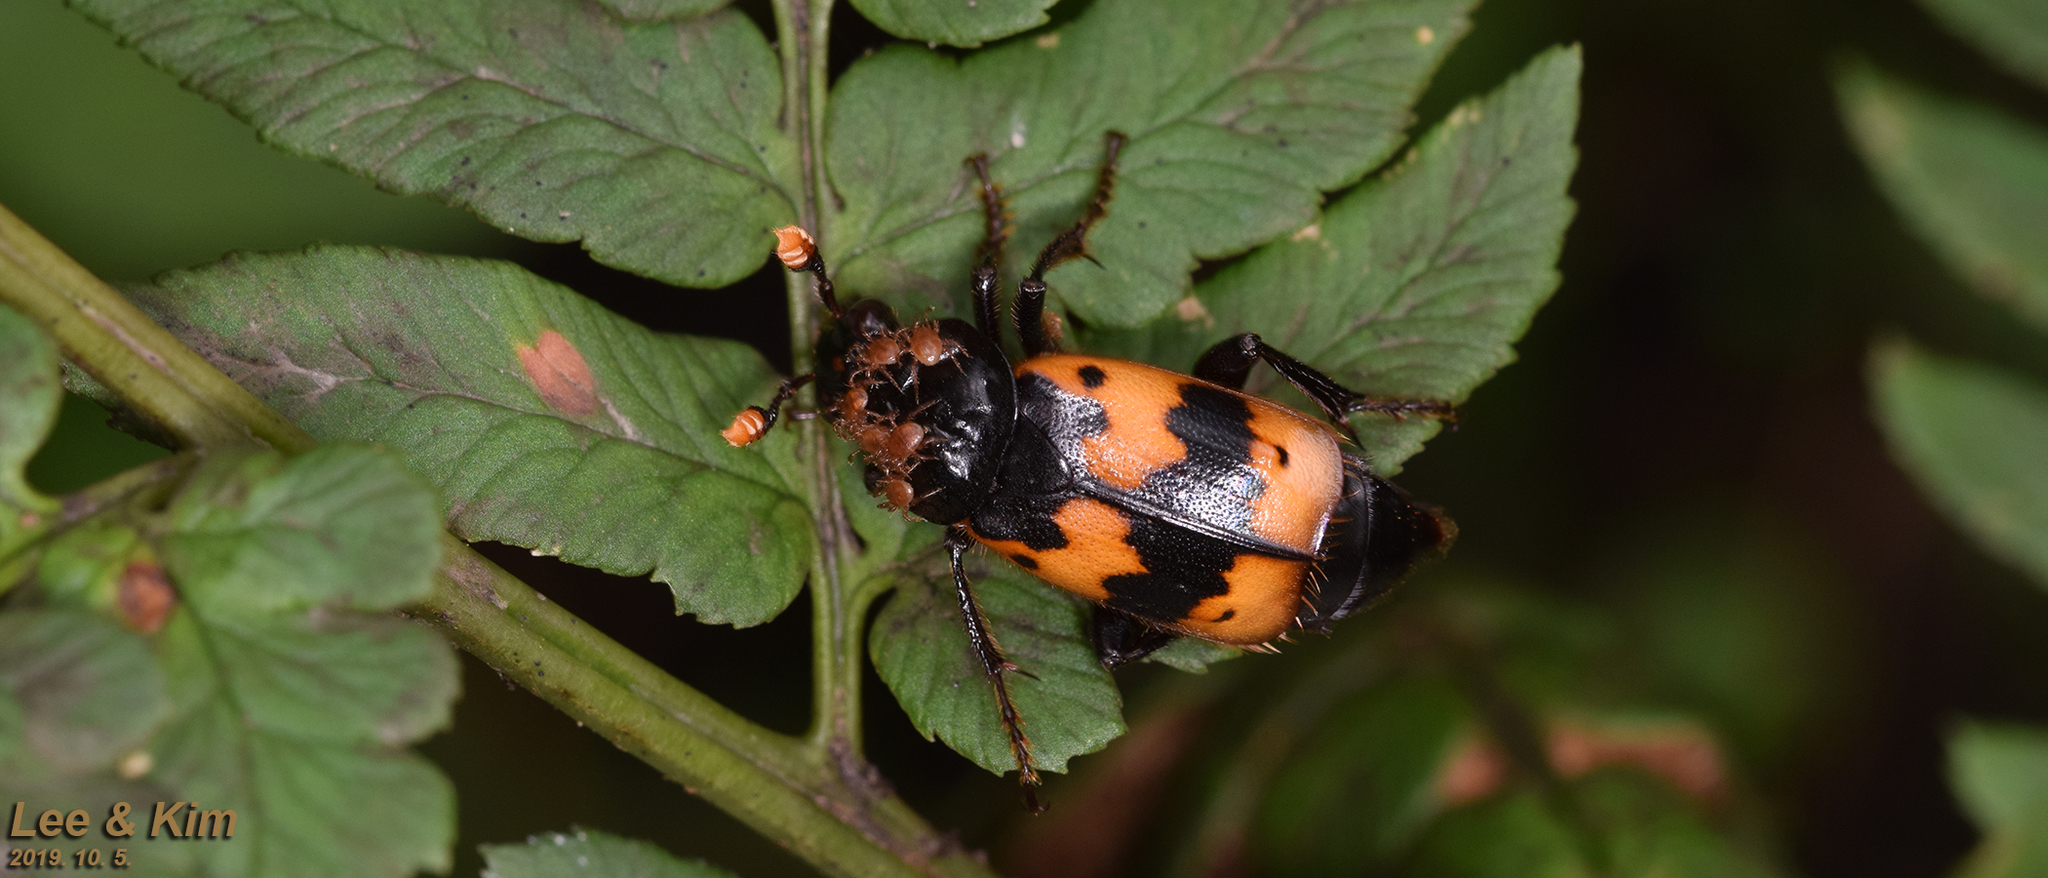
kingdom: Animalia
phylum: Arthropoda
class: Insecta
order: Coleoptera
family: Staphylinidae
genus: Nicrophorus
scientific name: Nicrophorus quadripunctatus
